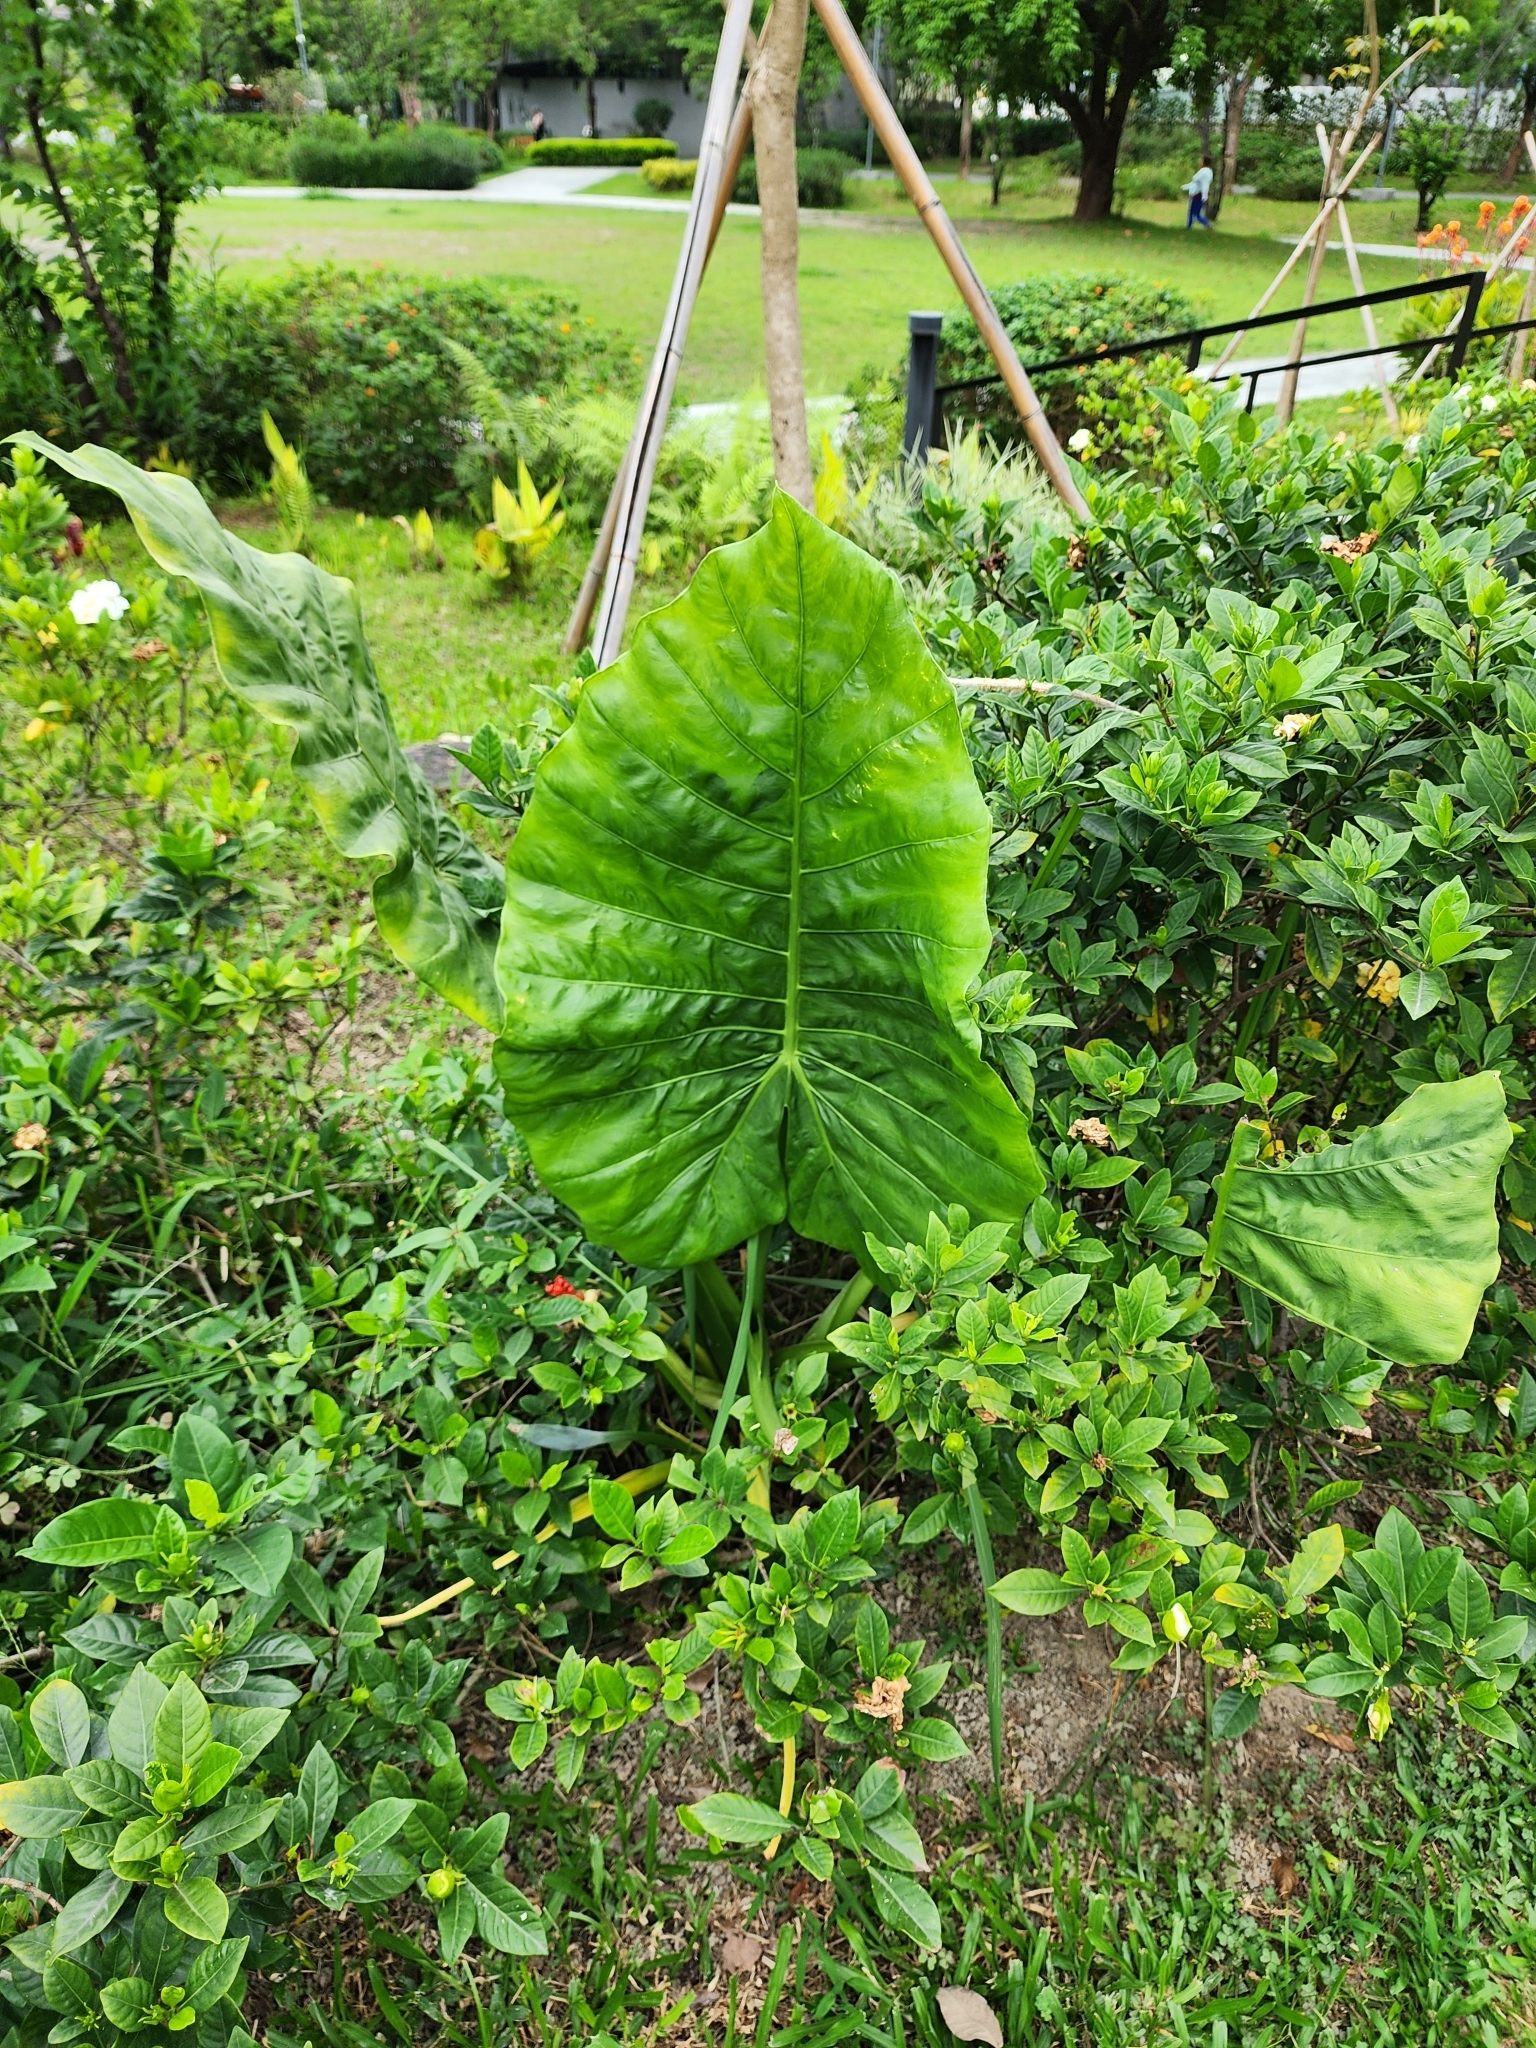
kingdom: Plantae
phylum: Tracheophyta
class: Liliopsida
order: Alismatales
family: Araceae
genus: Alocasia
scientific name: Alocasia odora
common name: Asian taro
